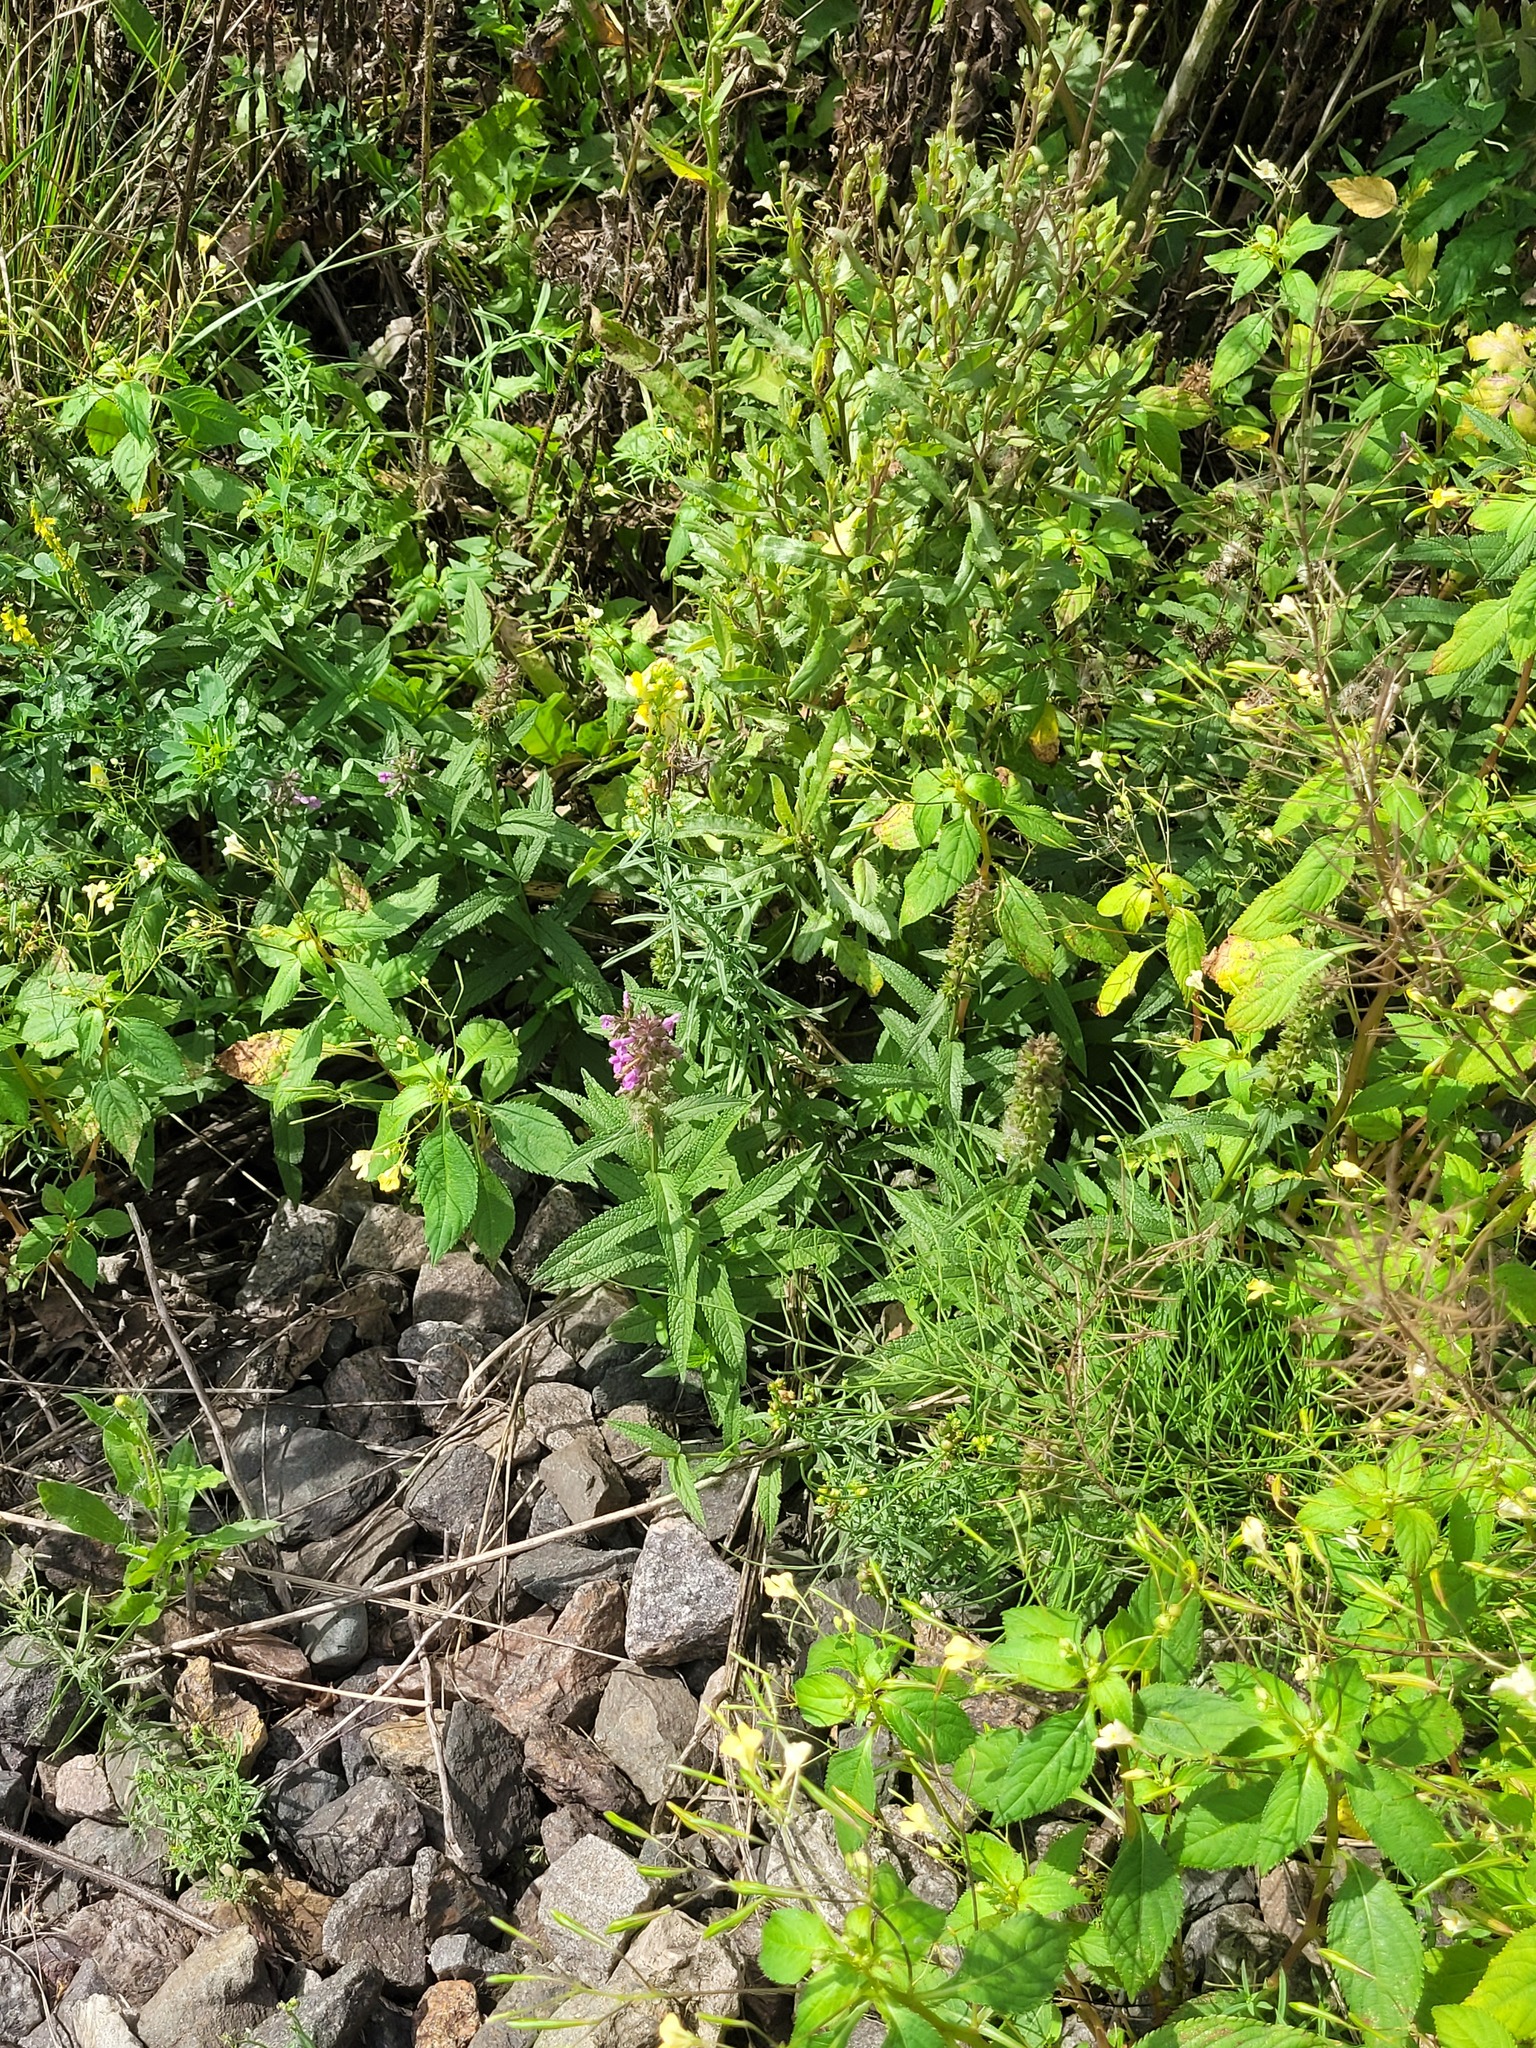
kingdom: Plantae
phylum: Tracheophyta
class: Magnoliopsida
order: Lamiales
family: Lamiaceae
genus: Stachys
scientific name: Stachys palustris
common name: Marsh woundwort
